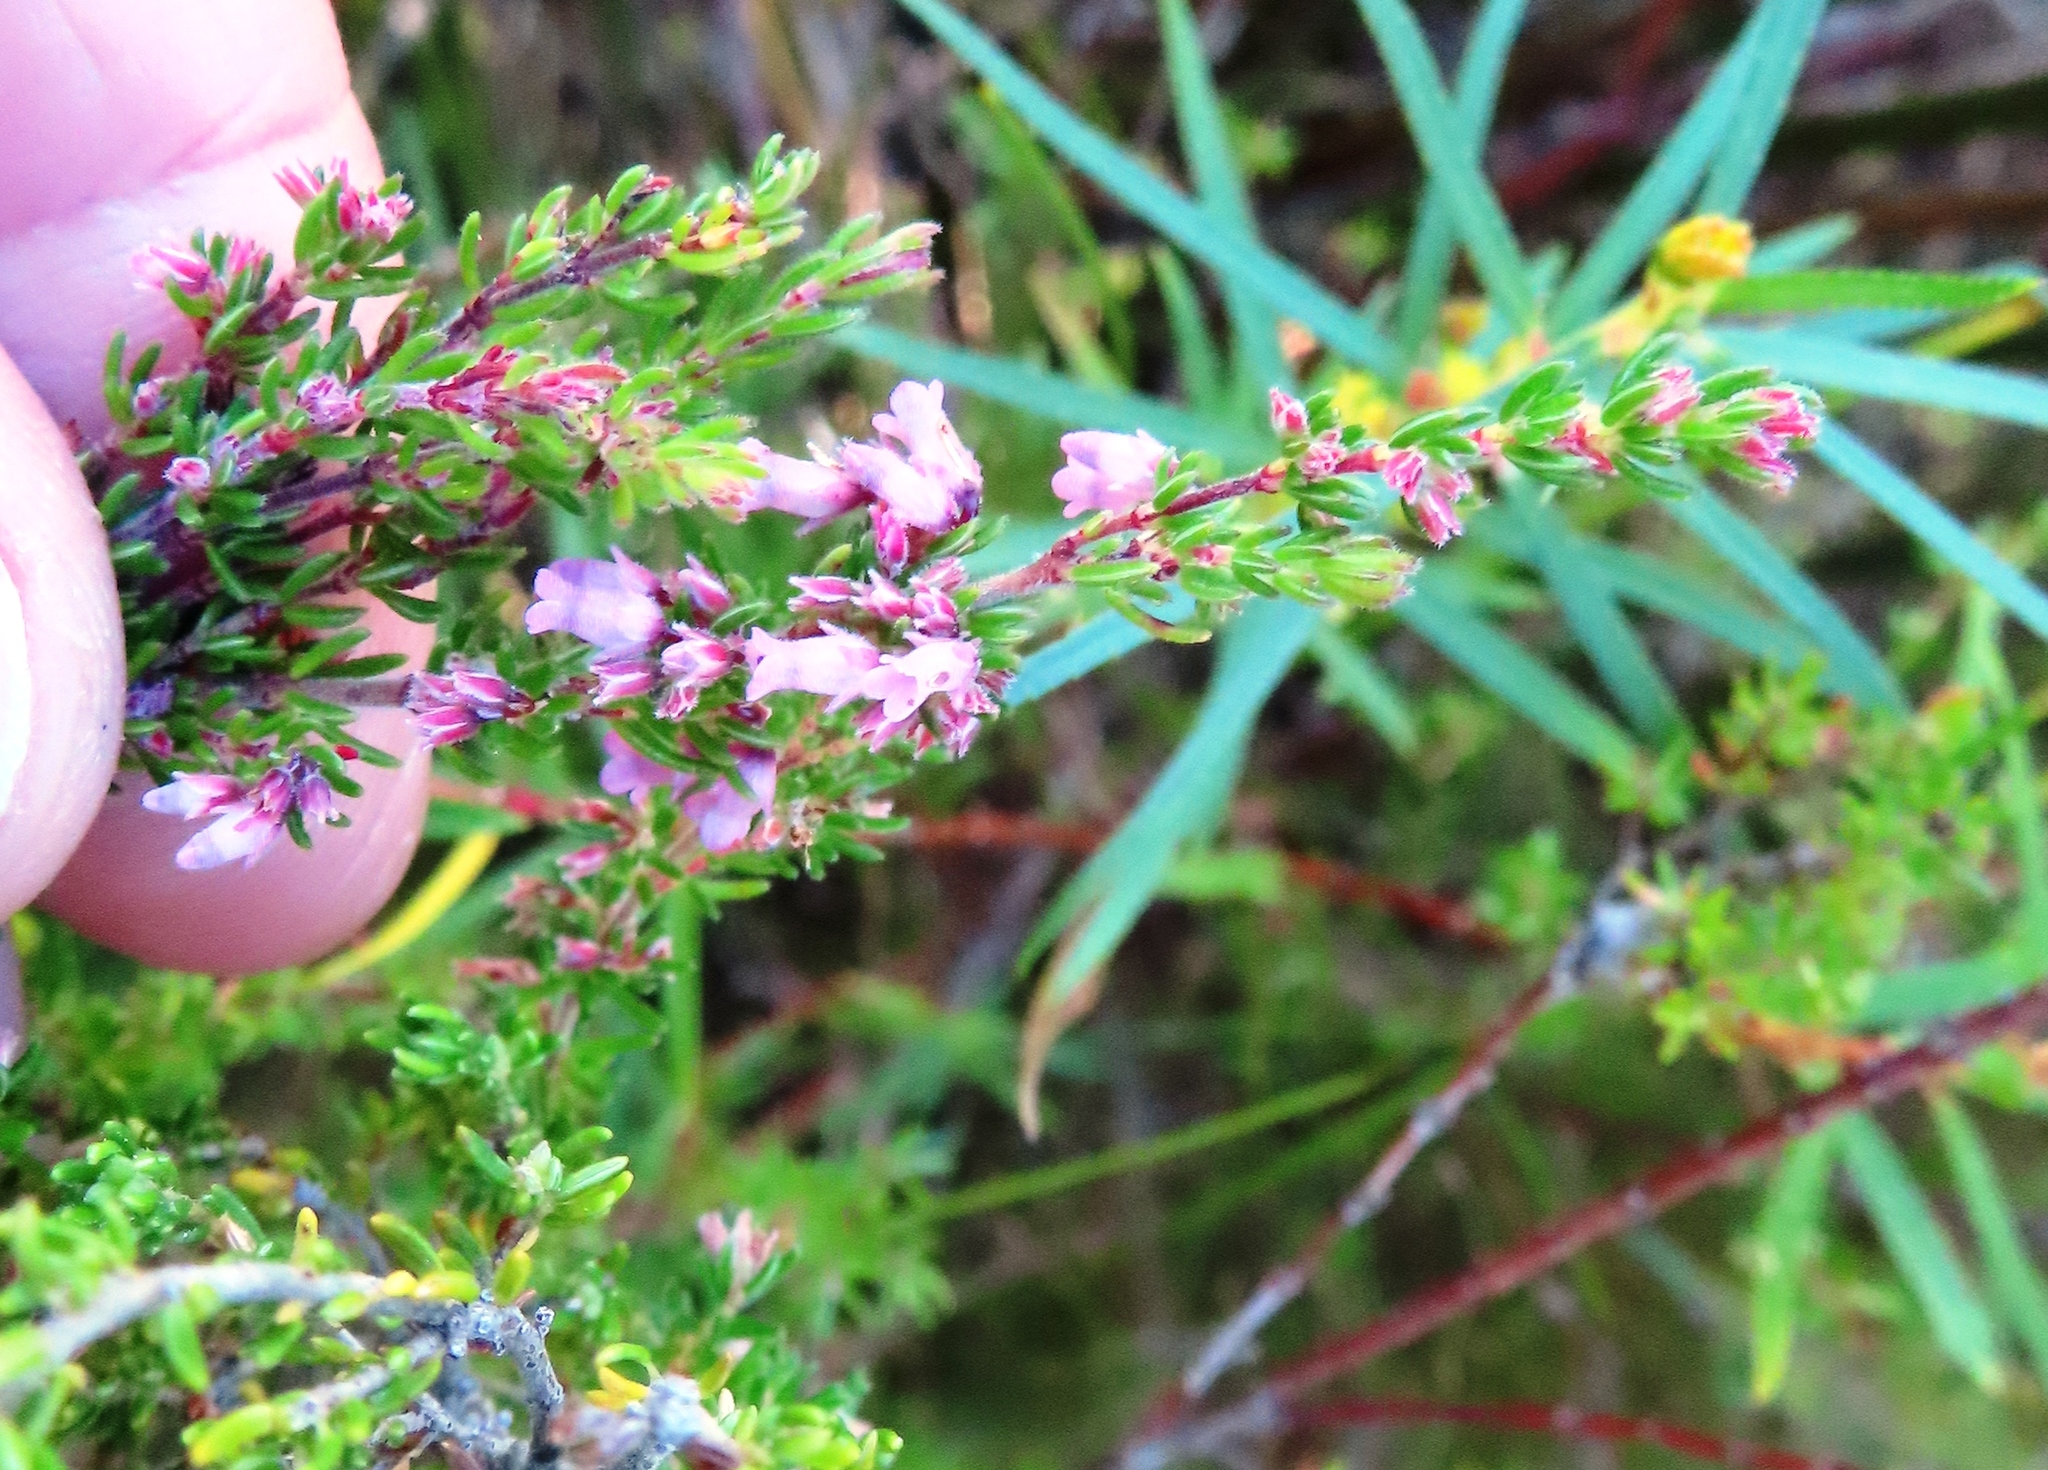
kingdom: Plantae
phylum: Tracheophyta
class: Magnoliopsida
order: Ericales
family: Ericaceae
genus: Erica
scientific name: Erica intervallaris
